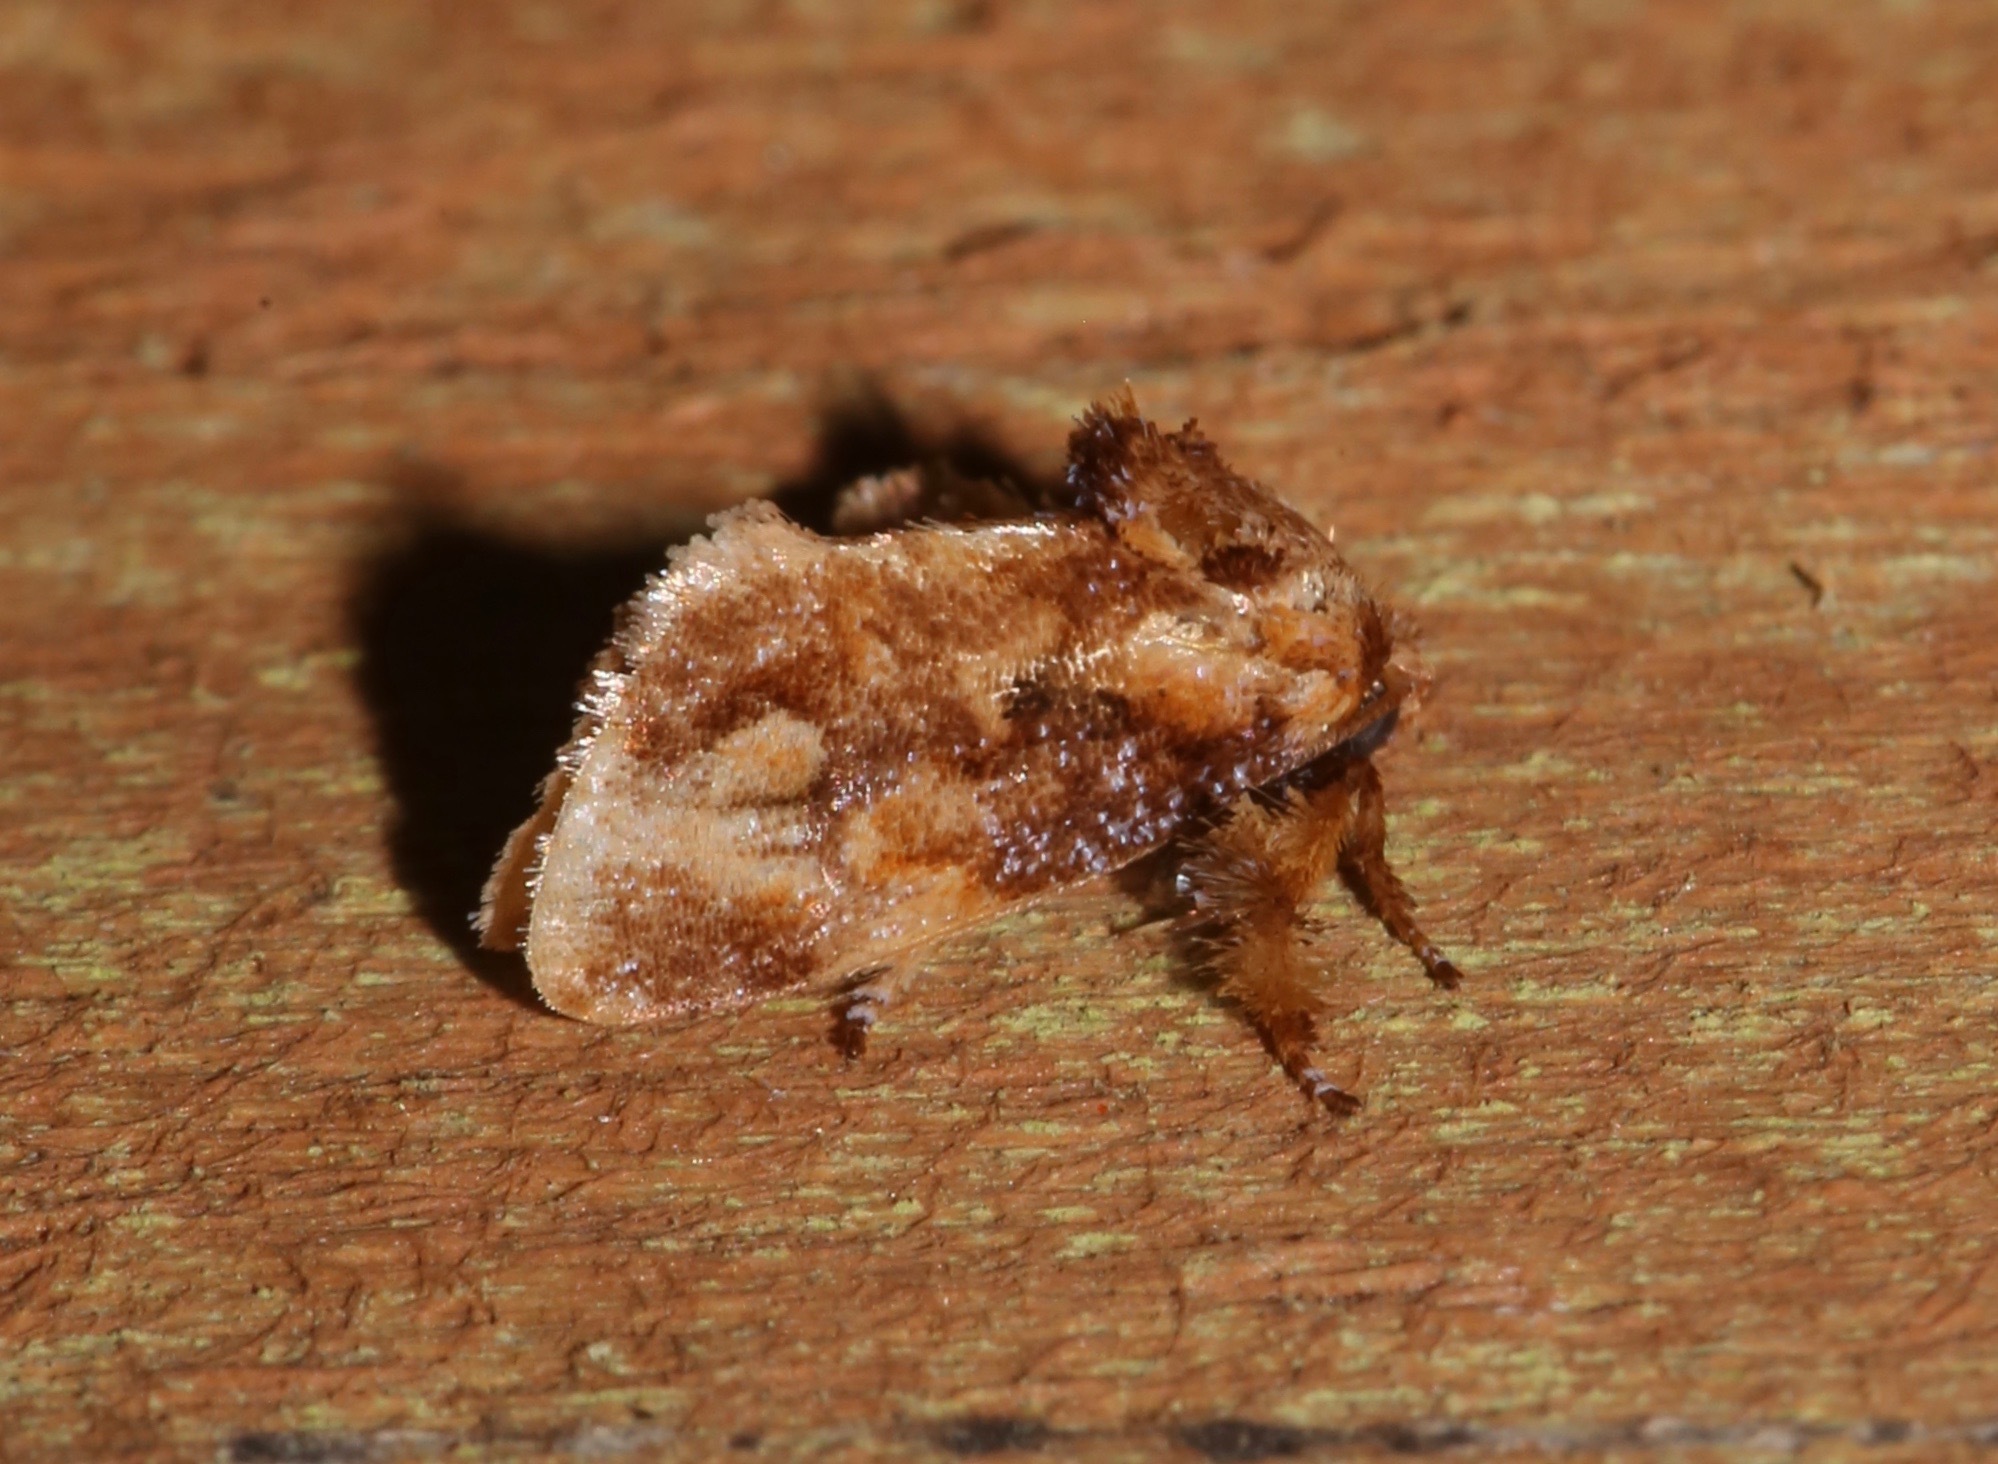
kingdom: Animalia
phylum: Arthropoda
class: Insecta
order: Lepidoptera
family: Limacodidae
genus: Isochaetes
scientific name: Isochaetes beutenmuelleri
